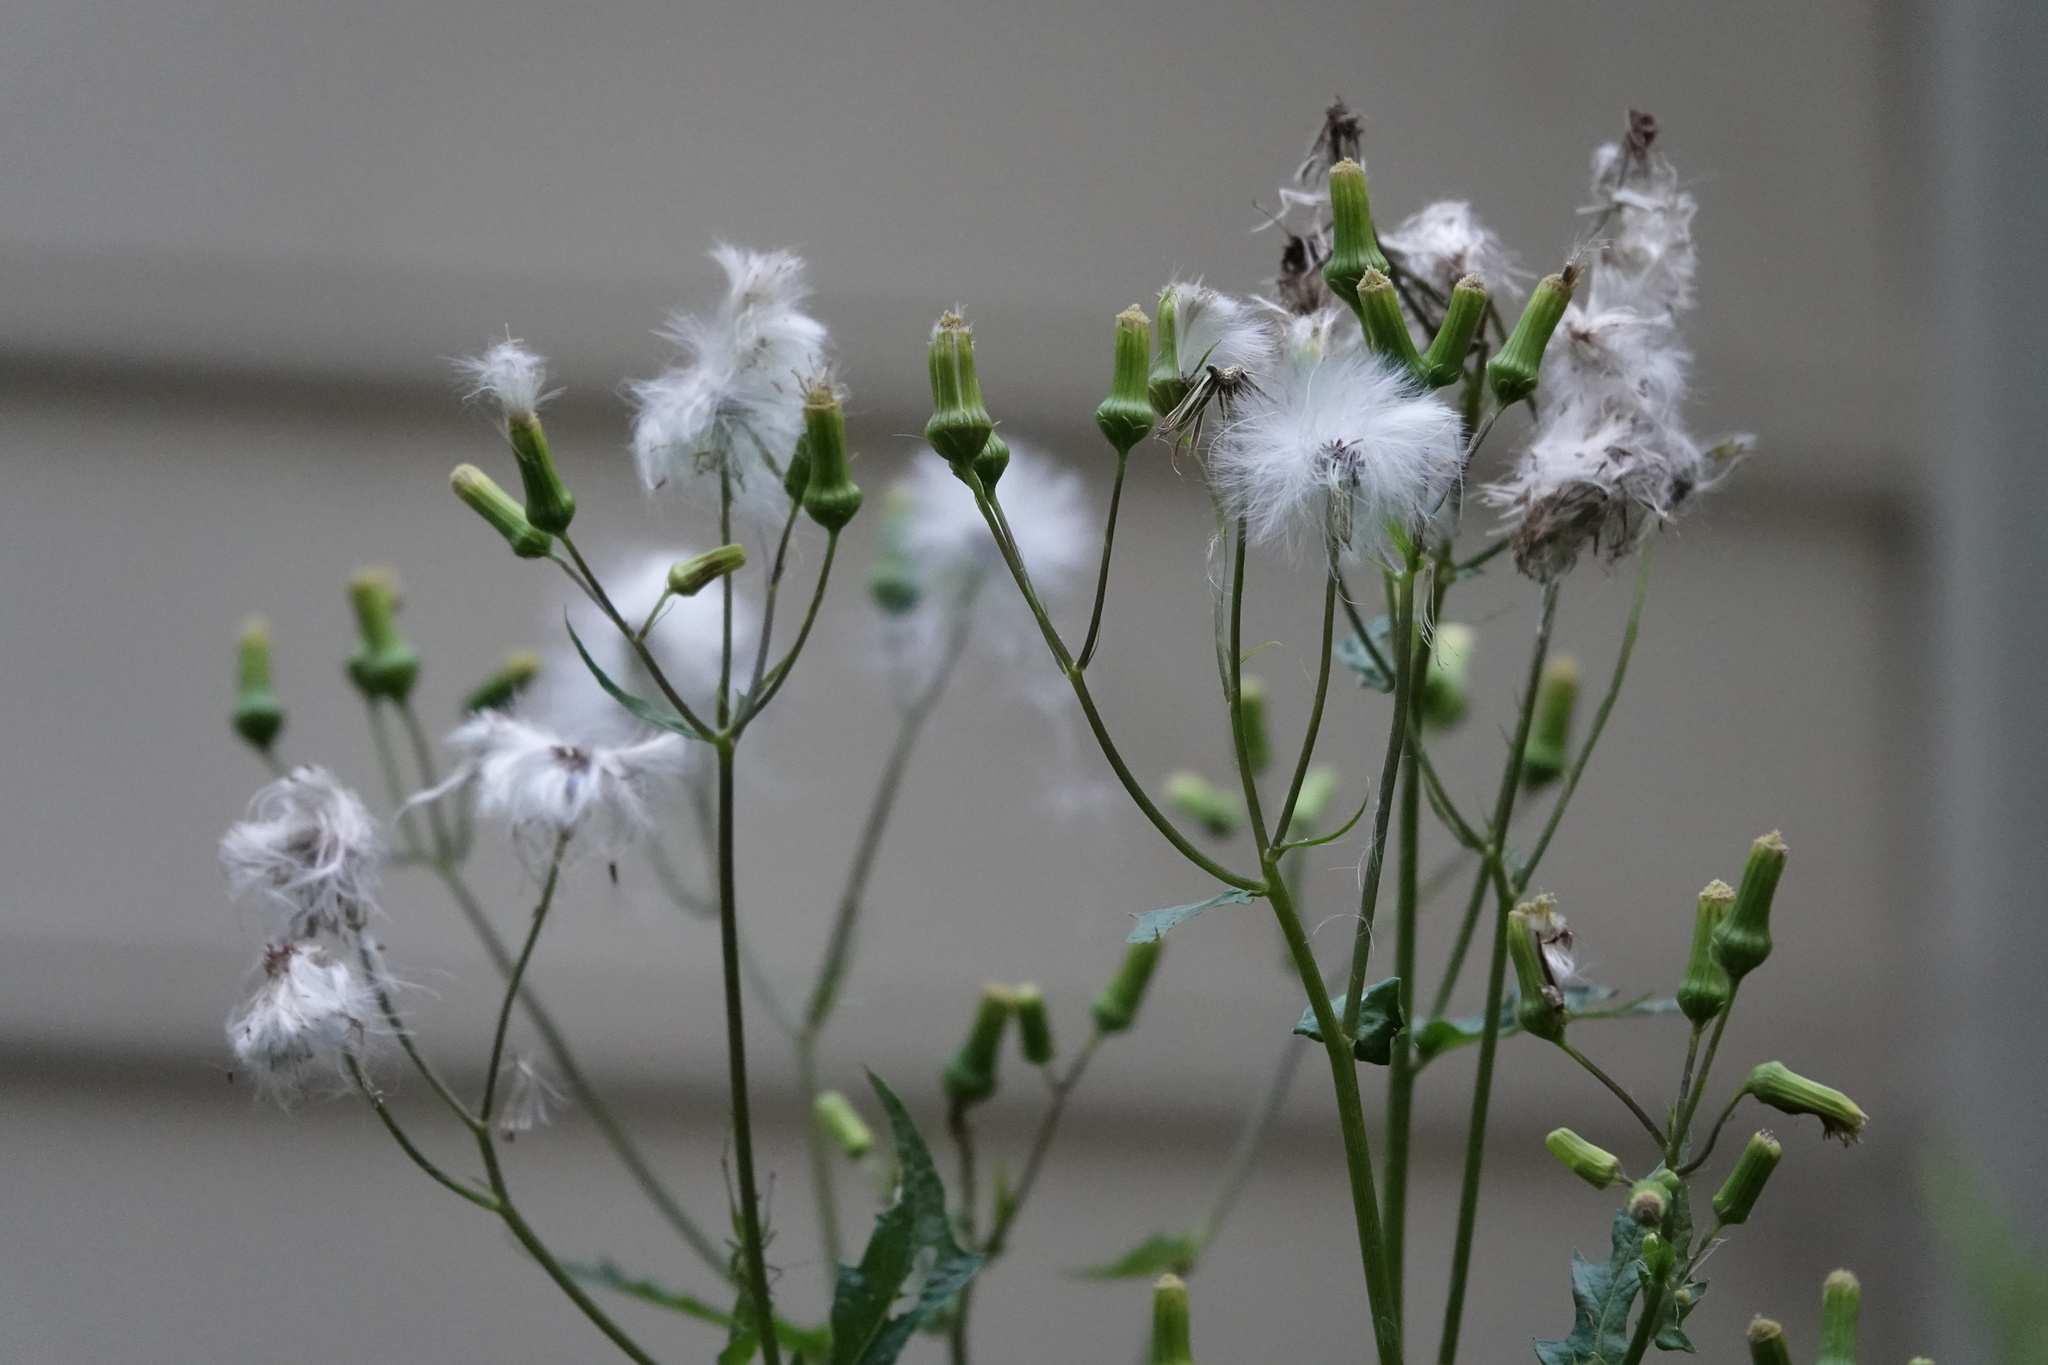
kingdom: Plantae
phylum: Tracheophyta
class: Magnoliopsida
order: Asterales
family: Asteraceae
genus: Erechtites
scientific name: Erechtites hieraciifolius
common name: American burnweed
